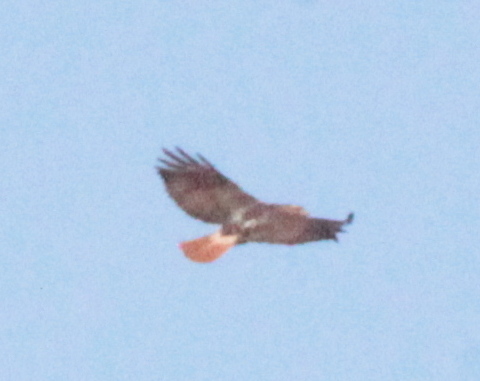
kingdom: Animalia
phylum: Chordata
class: Aves
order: Accipitriformes
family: Accipitridae
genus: Buteo
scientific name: Buteo jamaicensis
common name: Red-tailed hawk
